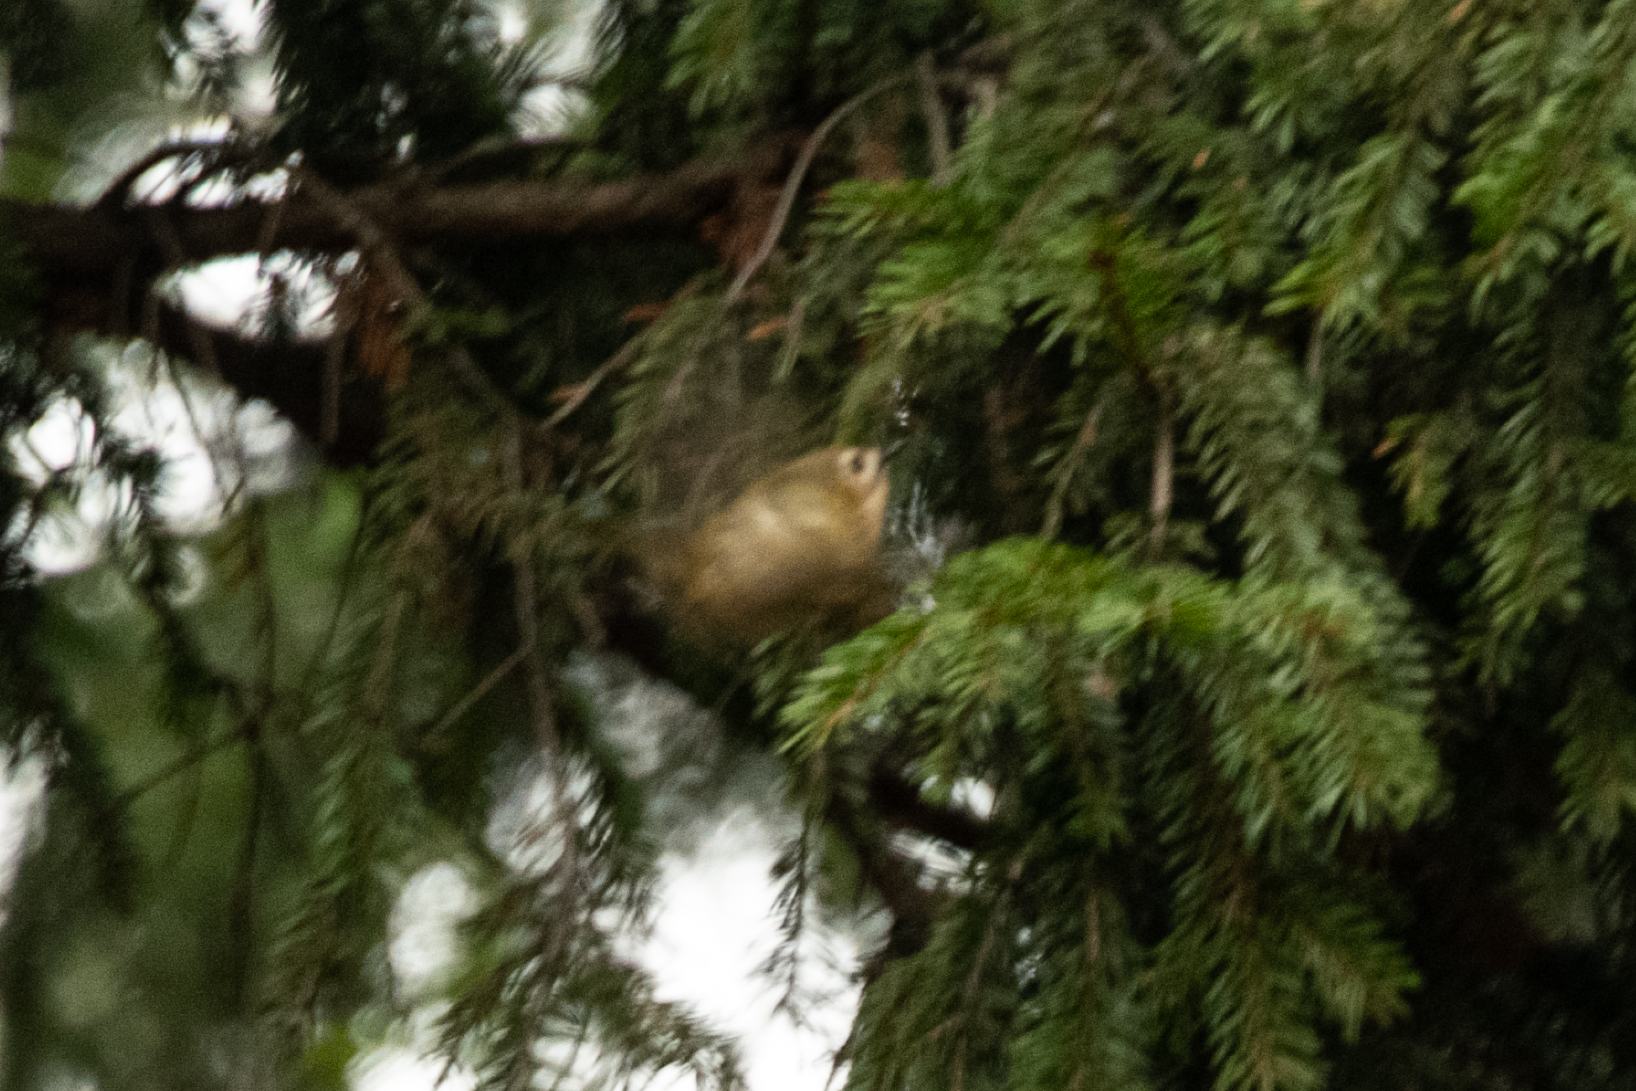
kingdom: Animalia
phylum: Chordata
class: Aves
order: Passeriformes
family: Regulidae
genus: Regulus
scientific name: Regulus regulus
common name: Goldcrest
